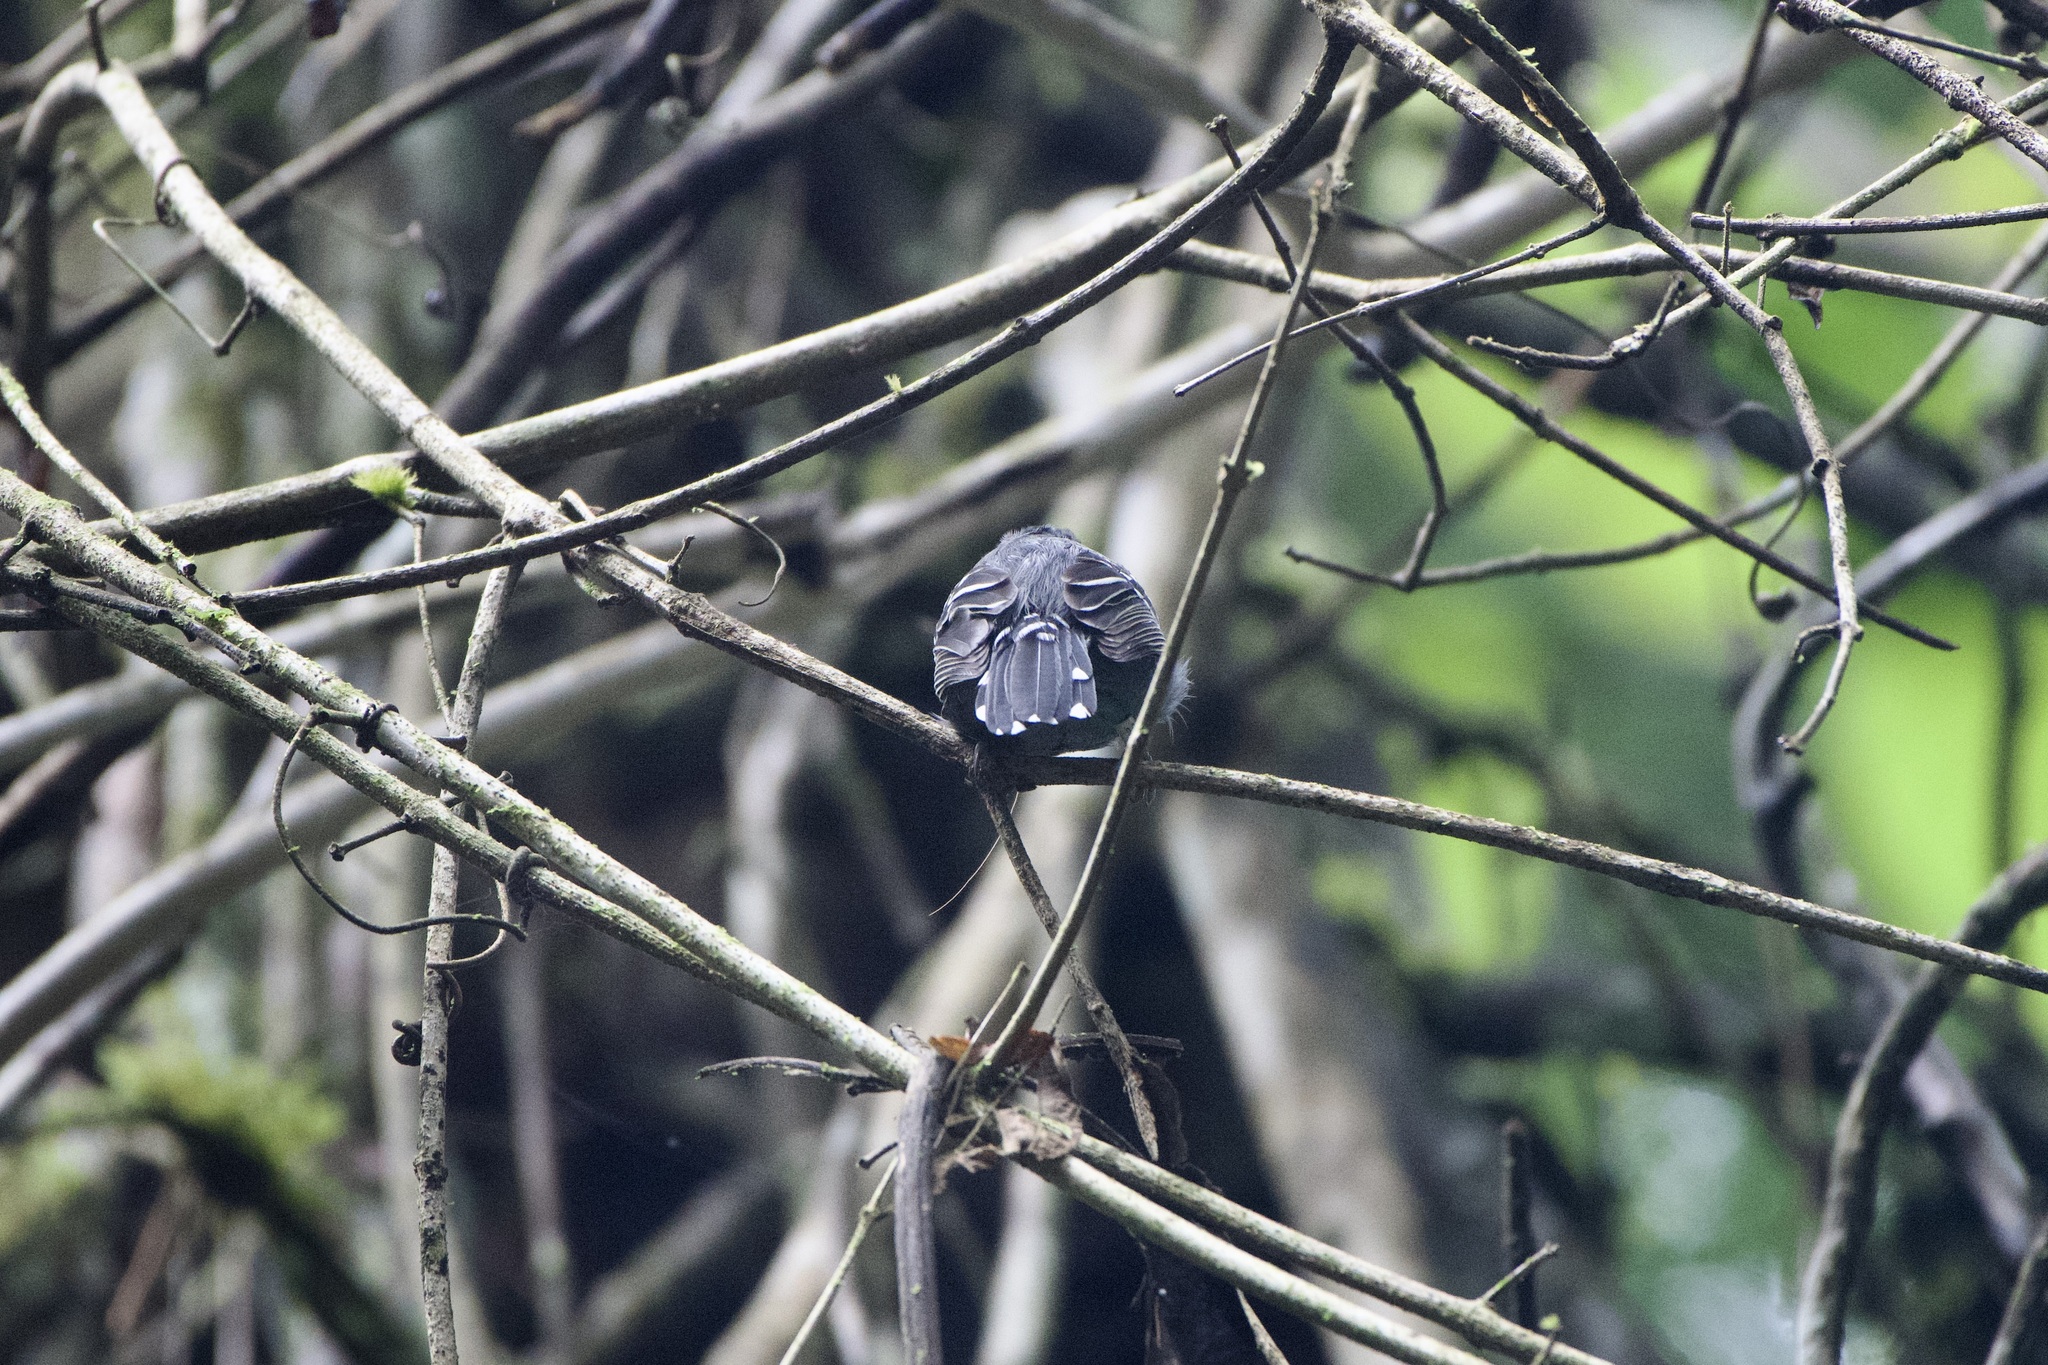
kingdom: Animalia
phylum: Chordata
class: Aves
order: Passeriformes
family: Thamnophilidae
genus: Thamnophilus
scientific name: Thamnophilus atrinucha
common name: Black-crowned antshrike
